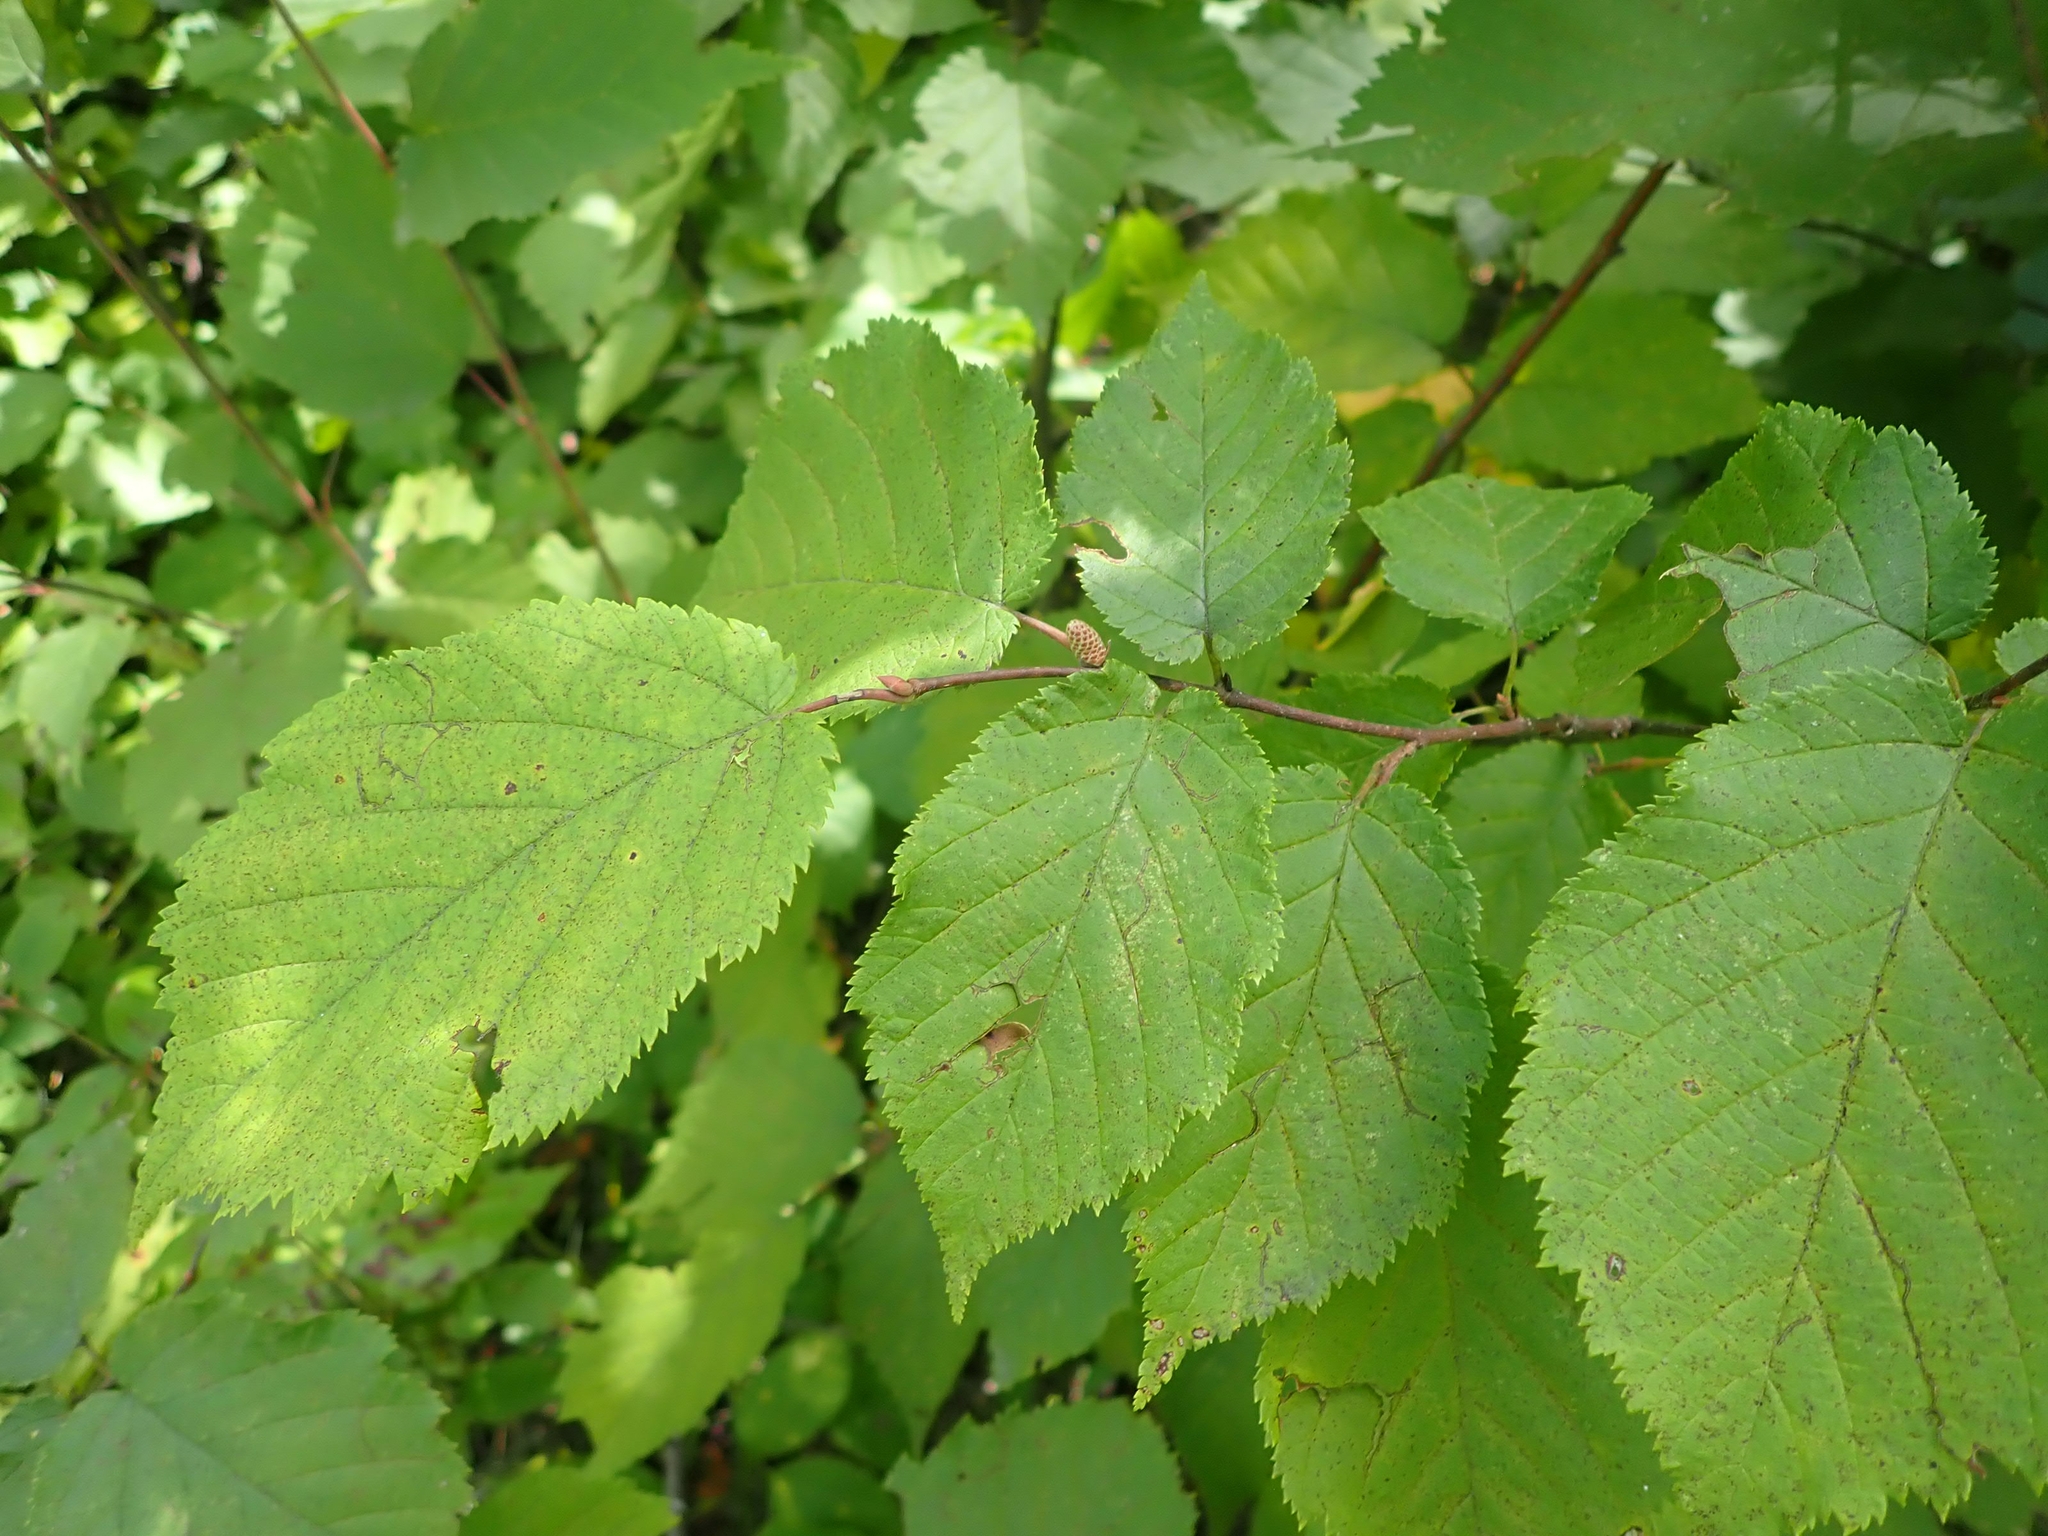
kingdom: Plantae
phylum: Tracheophyta
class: Magnoliopsida
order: Fagales
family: Betulaceae
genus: Corylus
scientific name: Corylus cornuta
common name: Beaked hazel
